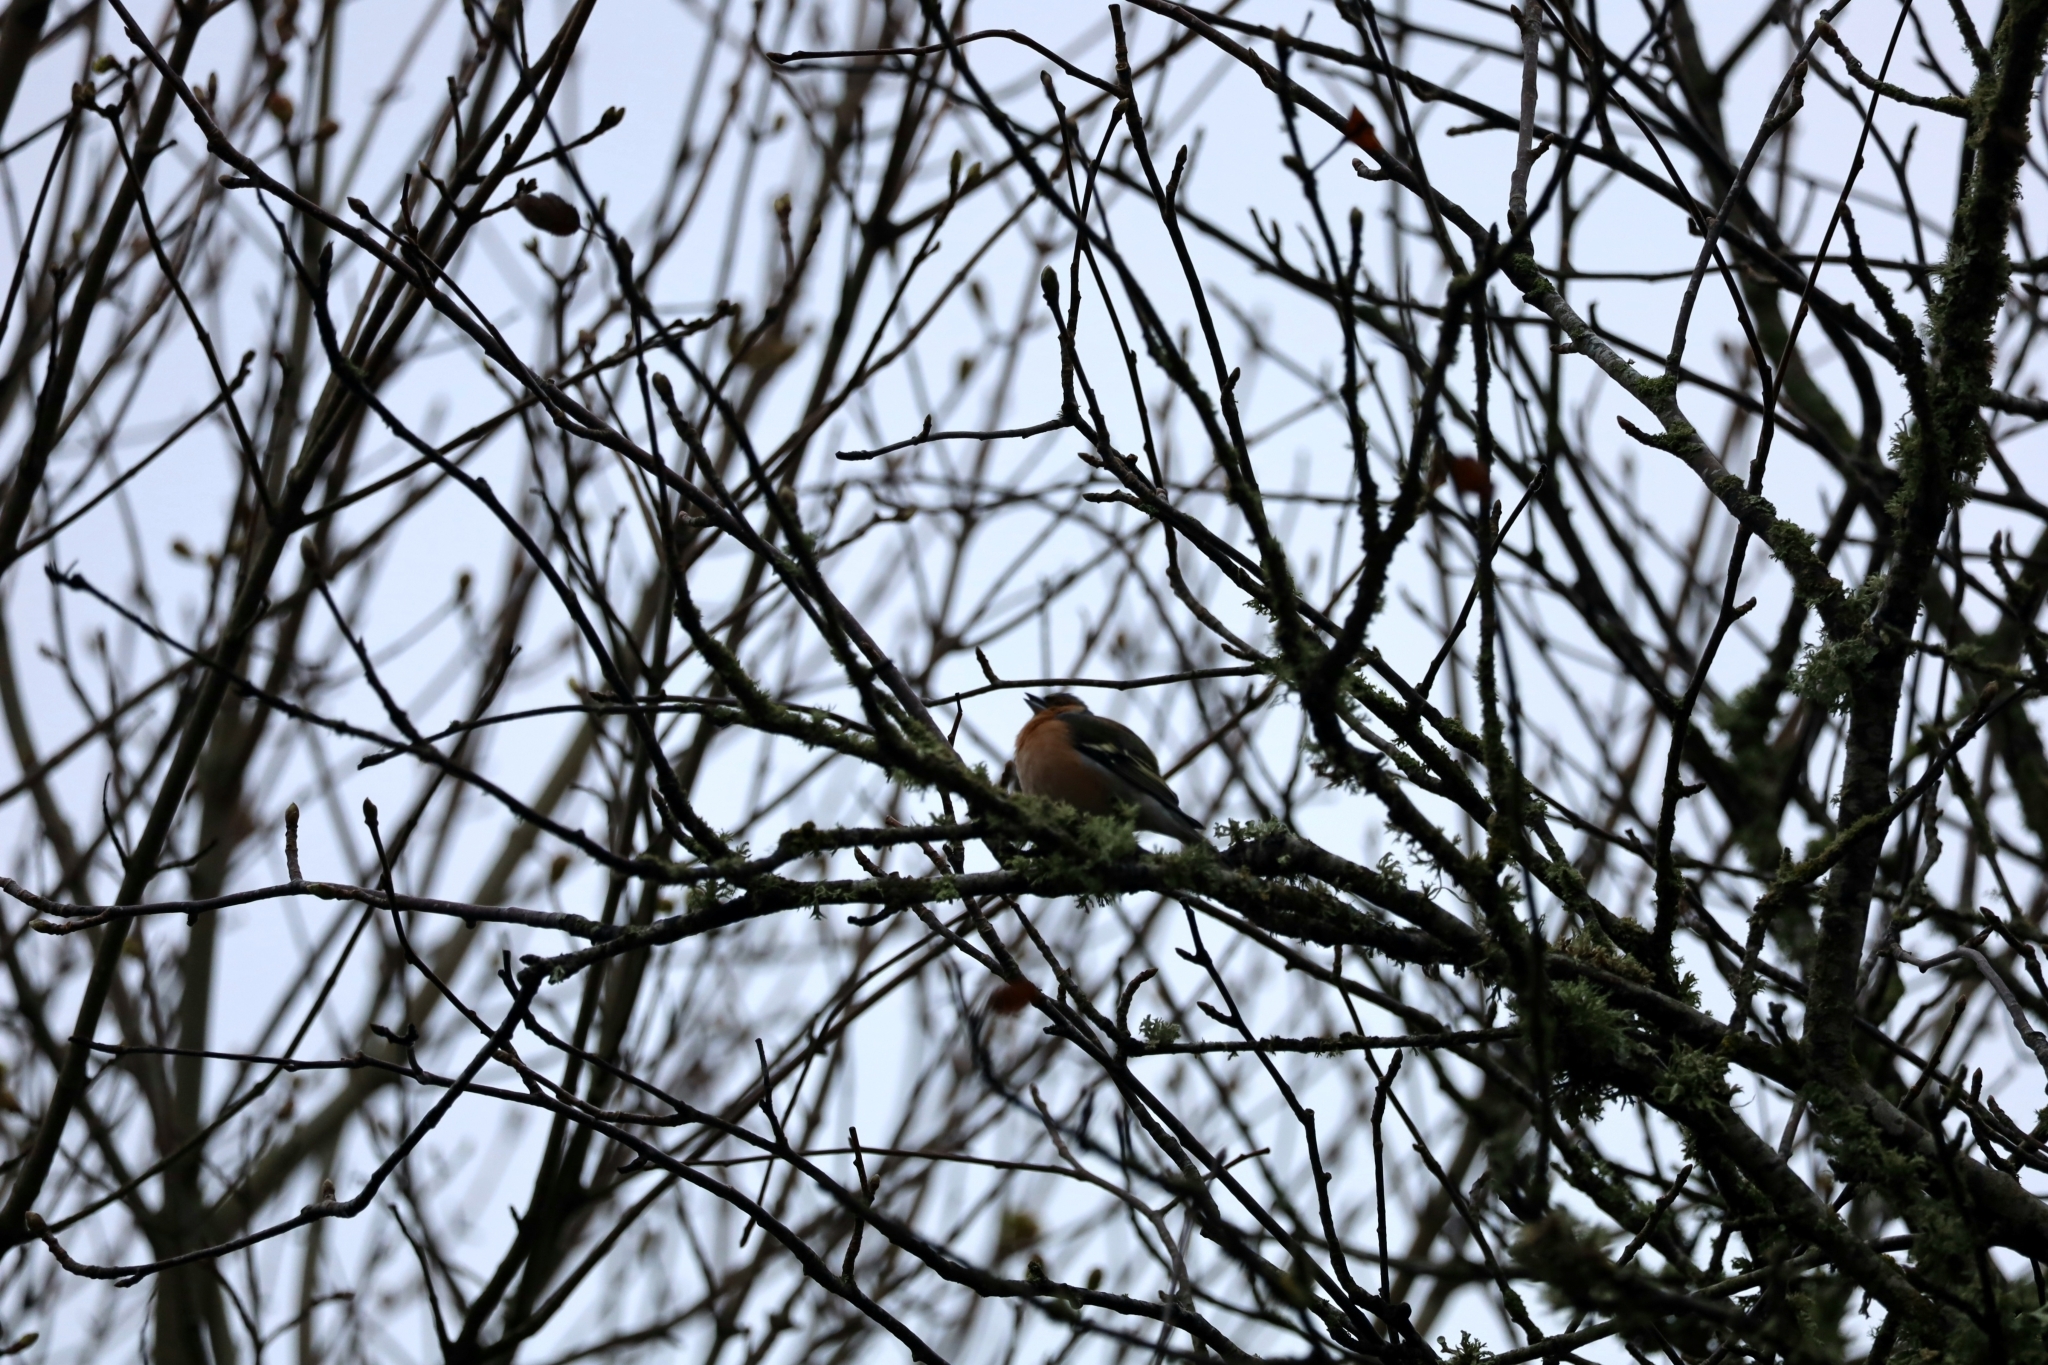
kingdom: Animalia
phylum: Chordata
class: Aves
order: Passeriformes
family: Fringillidae
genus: Fringilla
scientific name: Fringilla coelebs
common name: Common chaffinch
